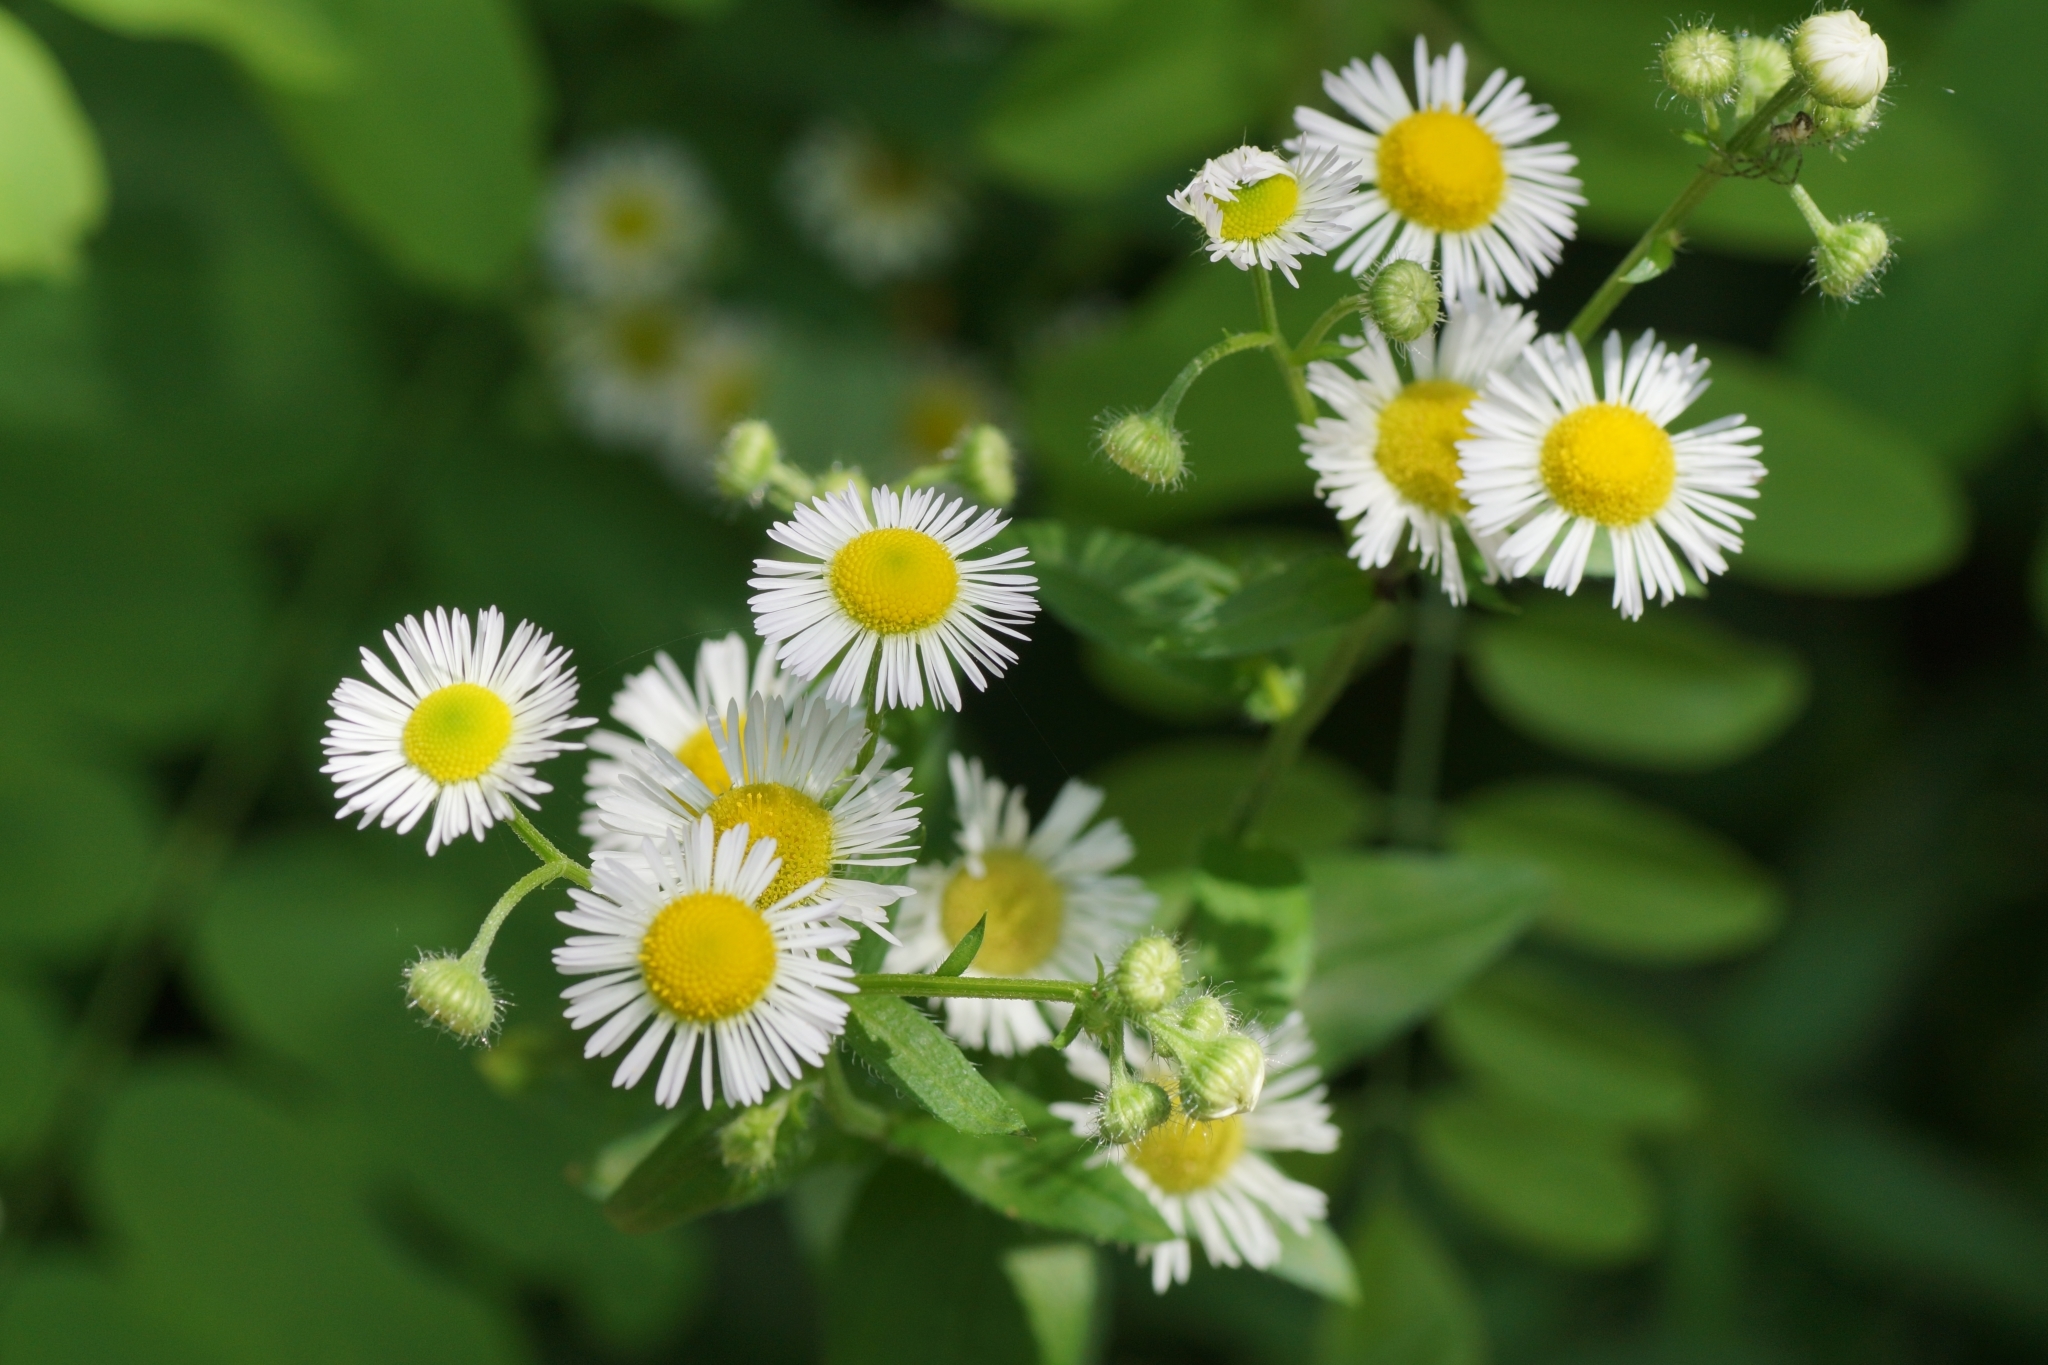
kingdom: Plantae
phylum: Tracheophyta
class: Magnoliopsida
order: Asterales
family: Asteraceae
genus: Erigeron
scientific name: Erigeron annuus
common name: Tall fleabane
